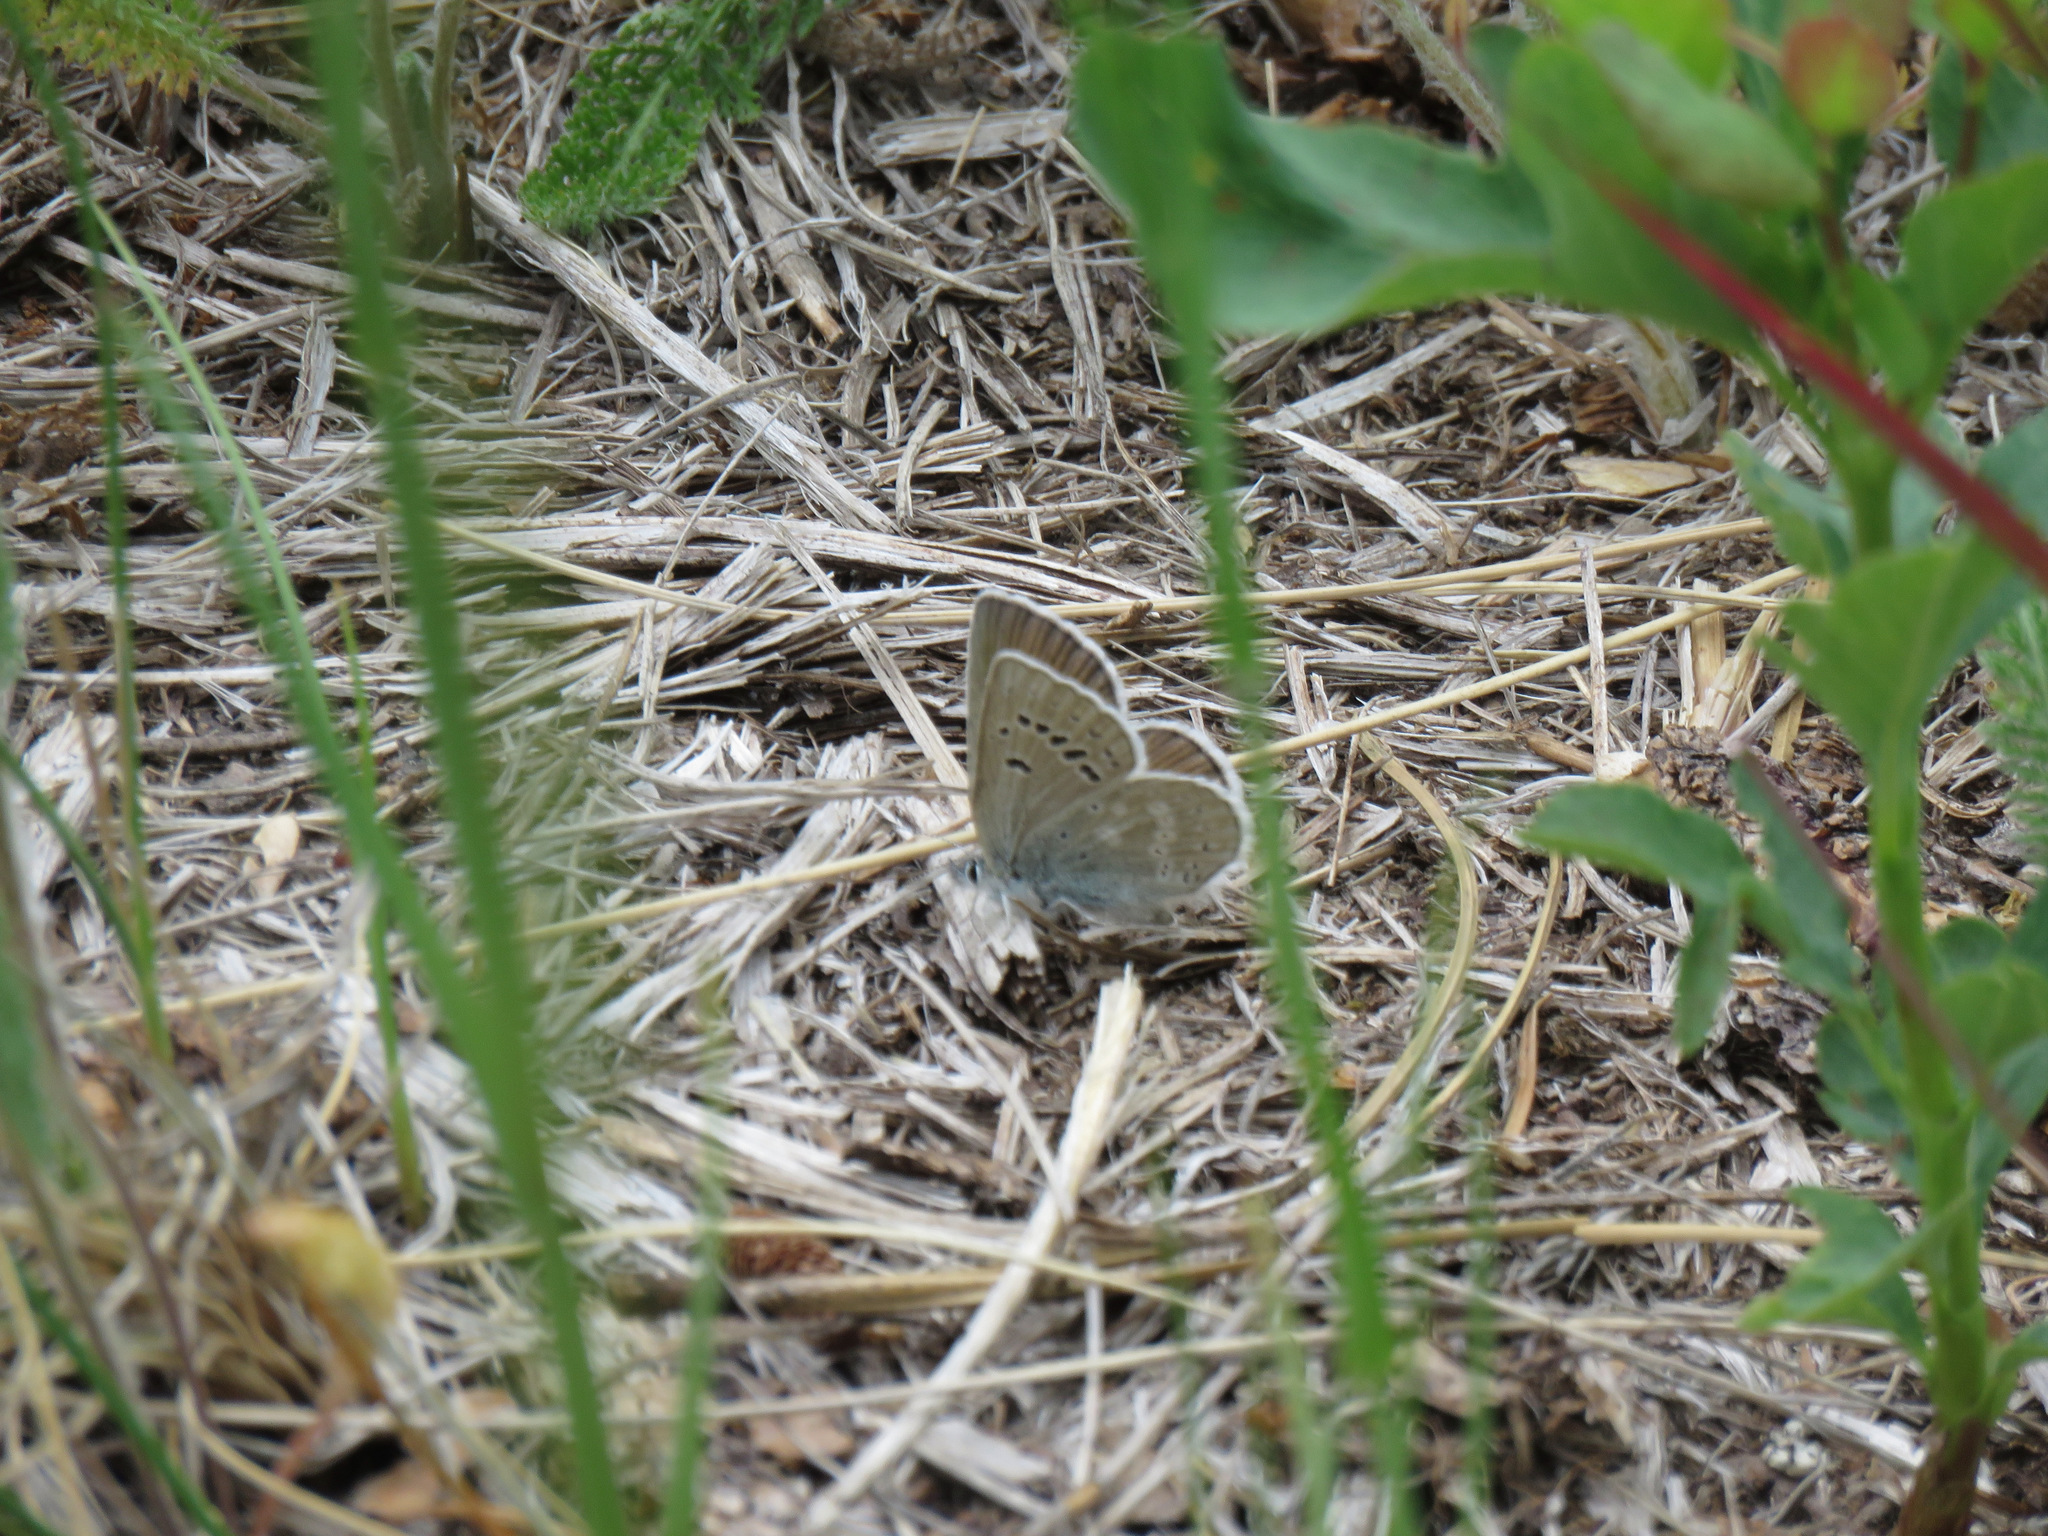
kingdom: Animalia
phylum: Arthropoda
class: Insecta
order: Lepidoptera
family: Lycaenidae
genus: Icaricia
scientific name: Icaricia icarioides
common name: Boisduval's blue
